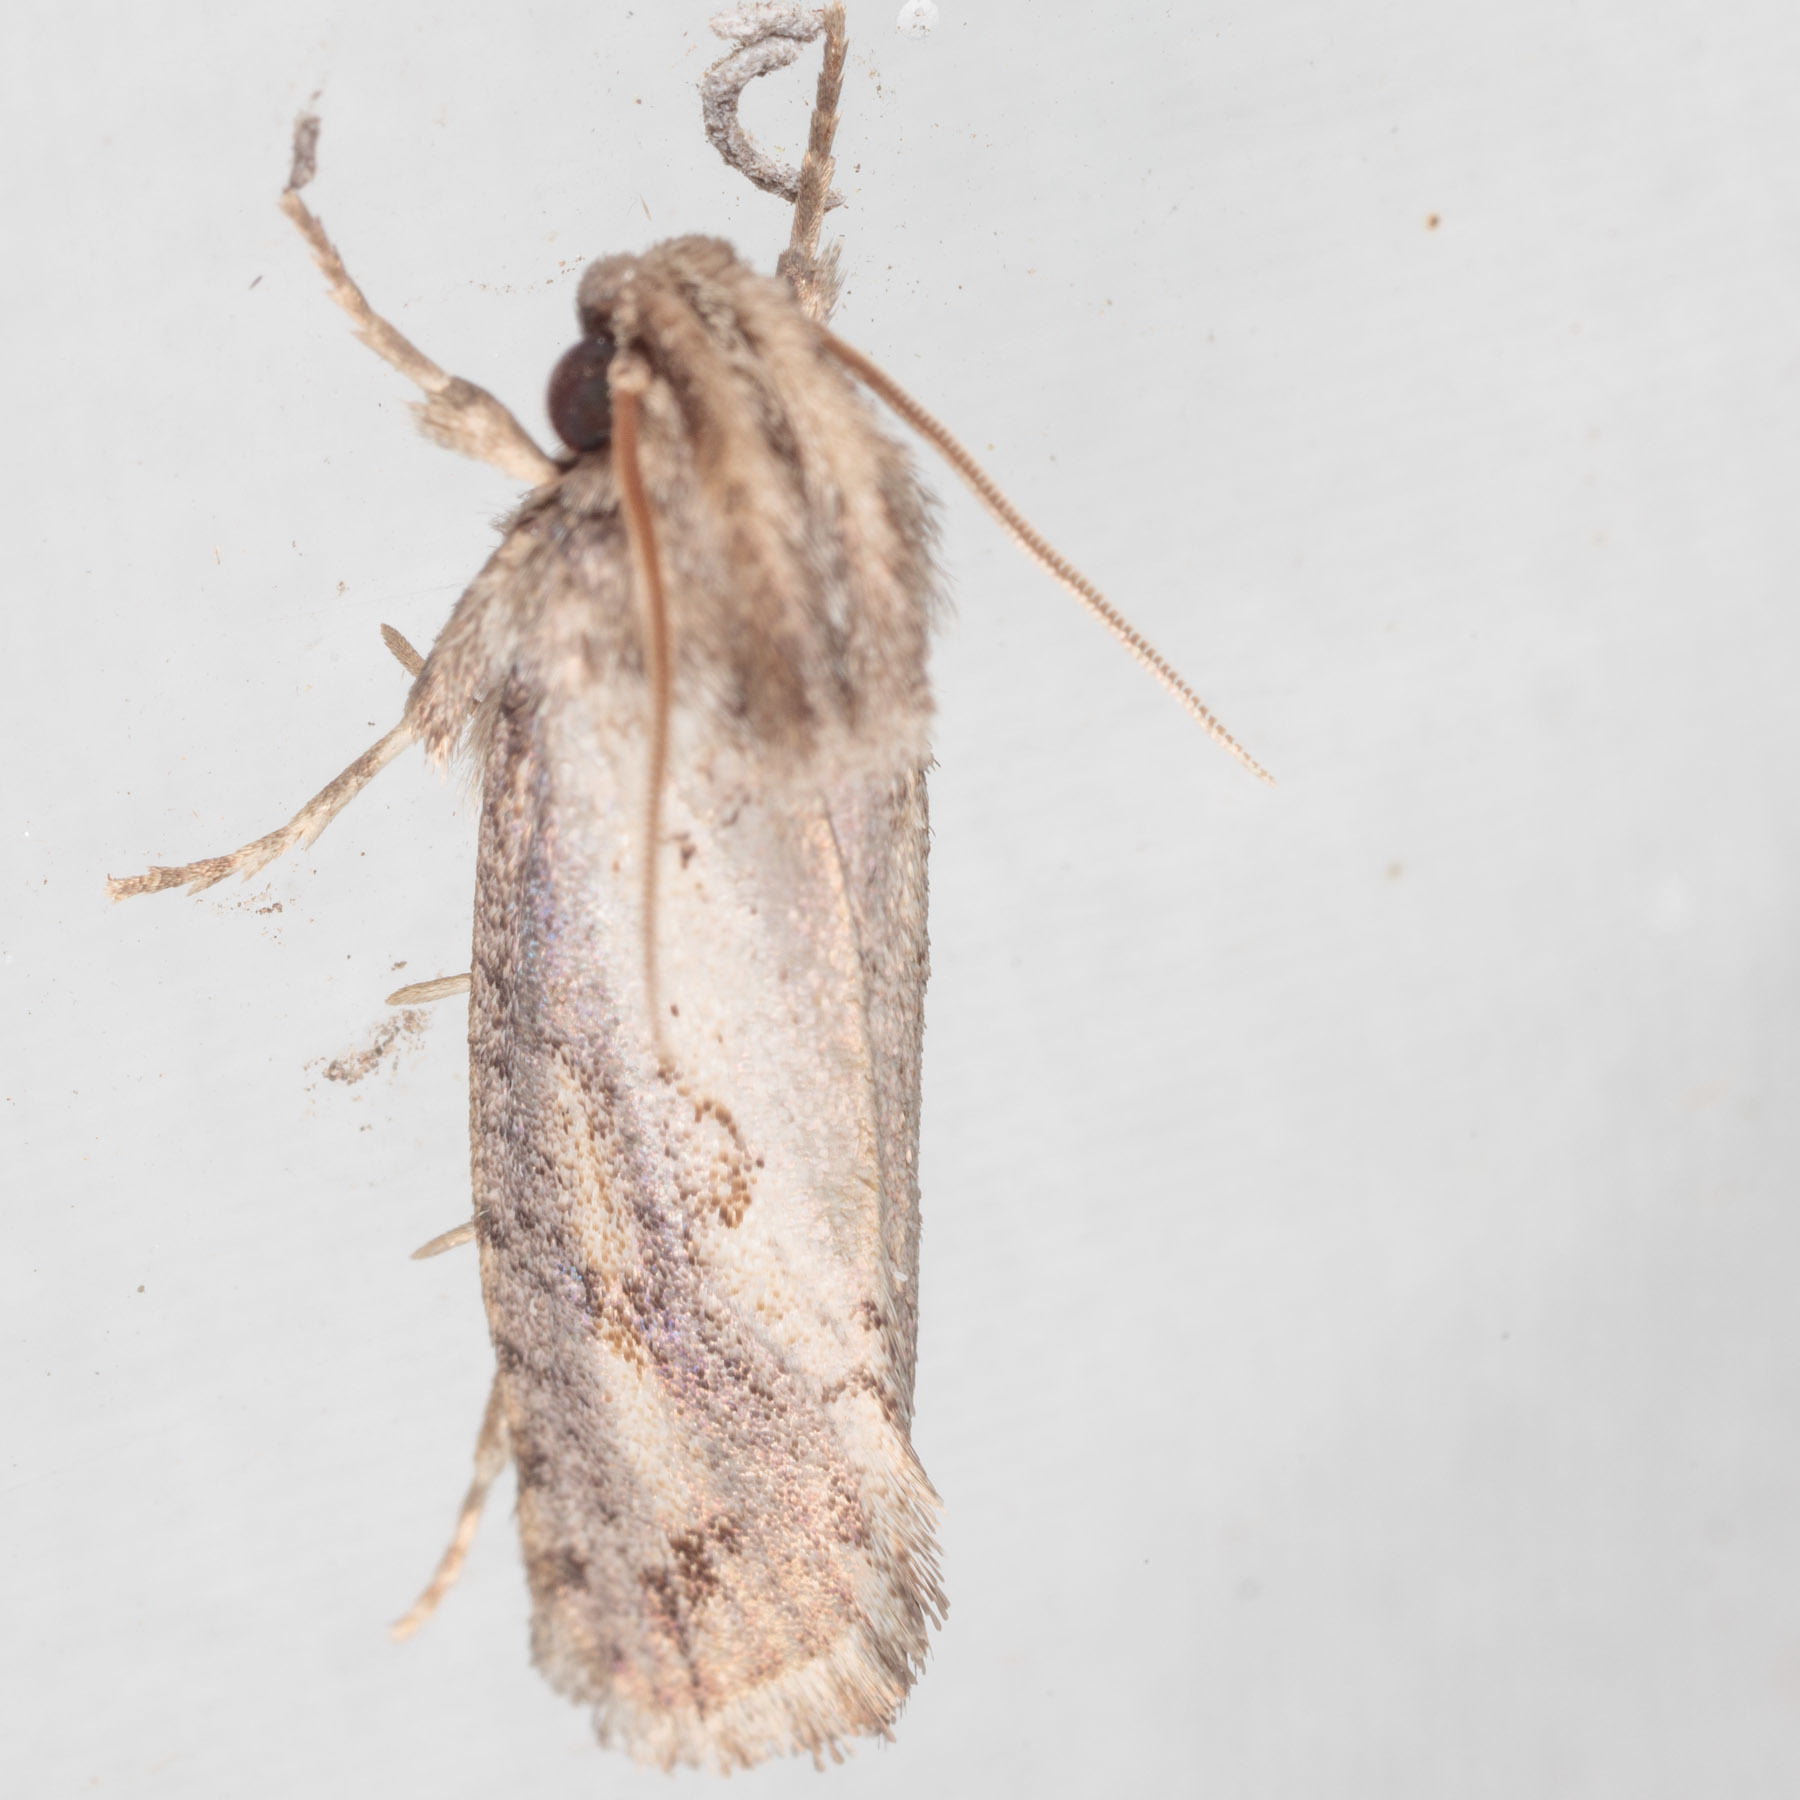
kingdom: Animalia
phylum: Arthropoda
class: Insecta
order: Lepidoptera
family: Tineidae
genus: Acrolophus
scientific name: Acrolophus piger
